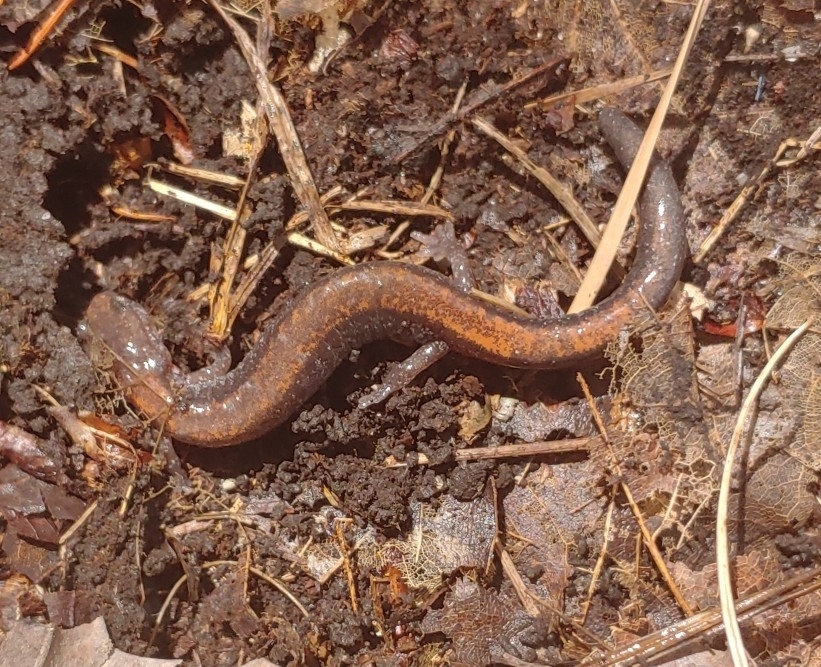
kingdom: Animalia
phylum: Chordata
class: Amphibia
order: Caudata
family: Plethodontidae
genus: Plethodon
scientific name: Plethodon cinereus
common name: Redback salamander
